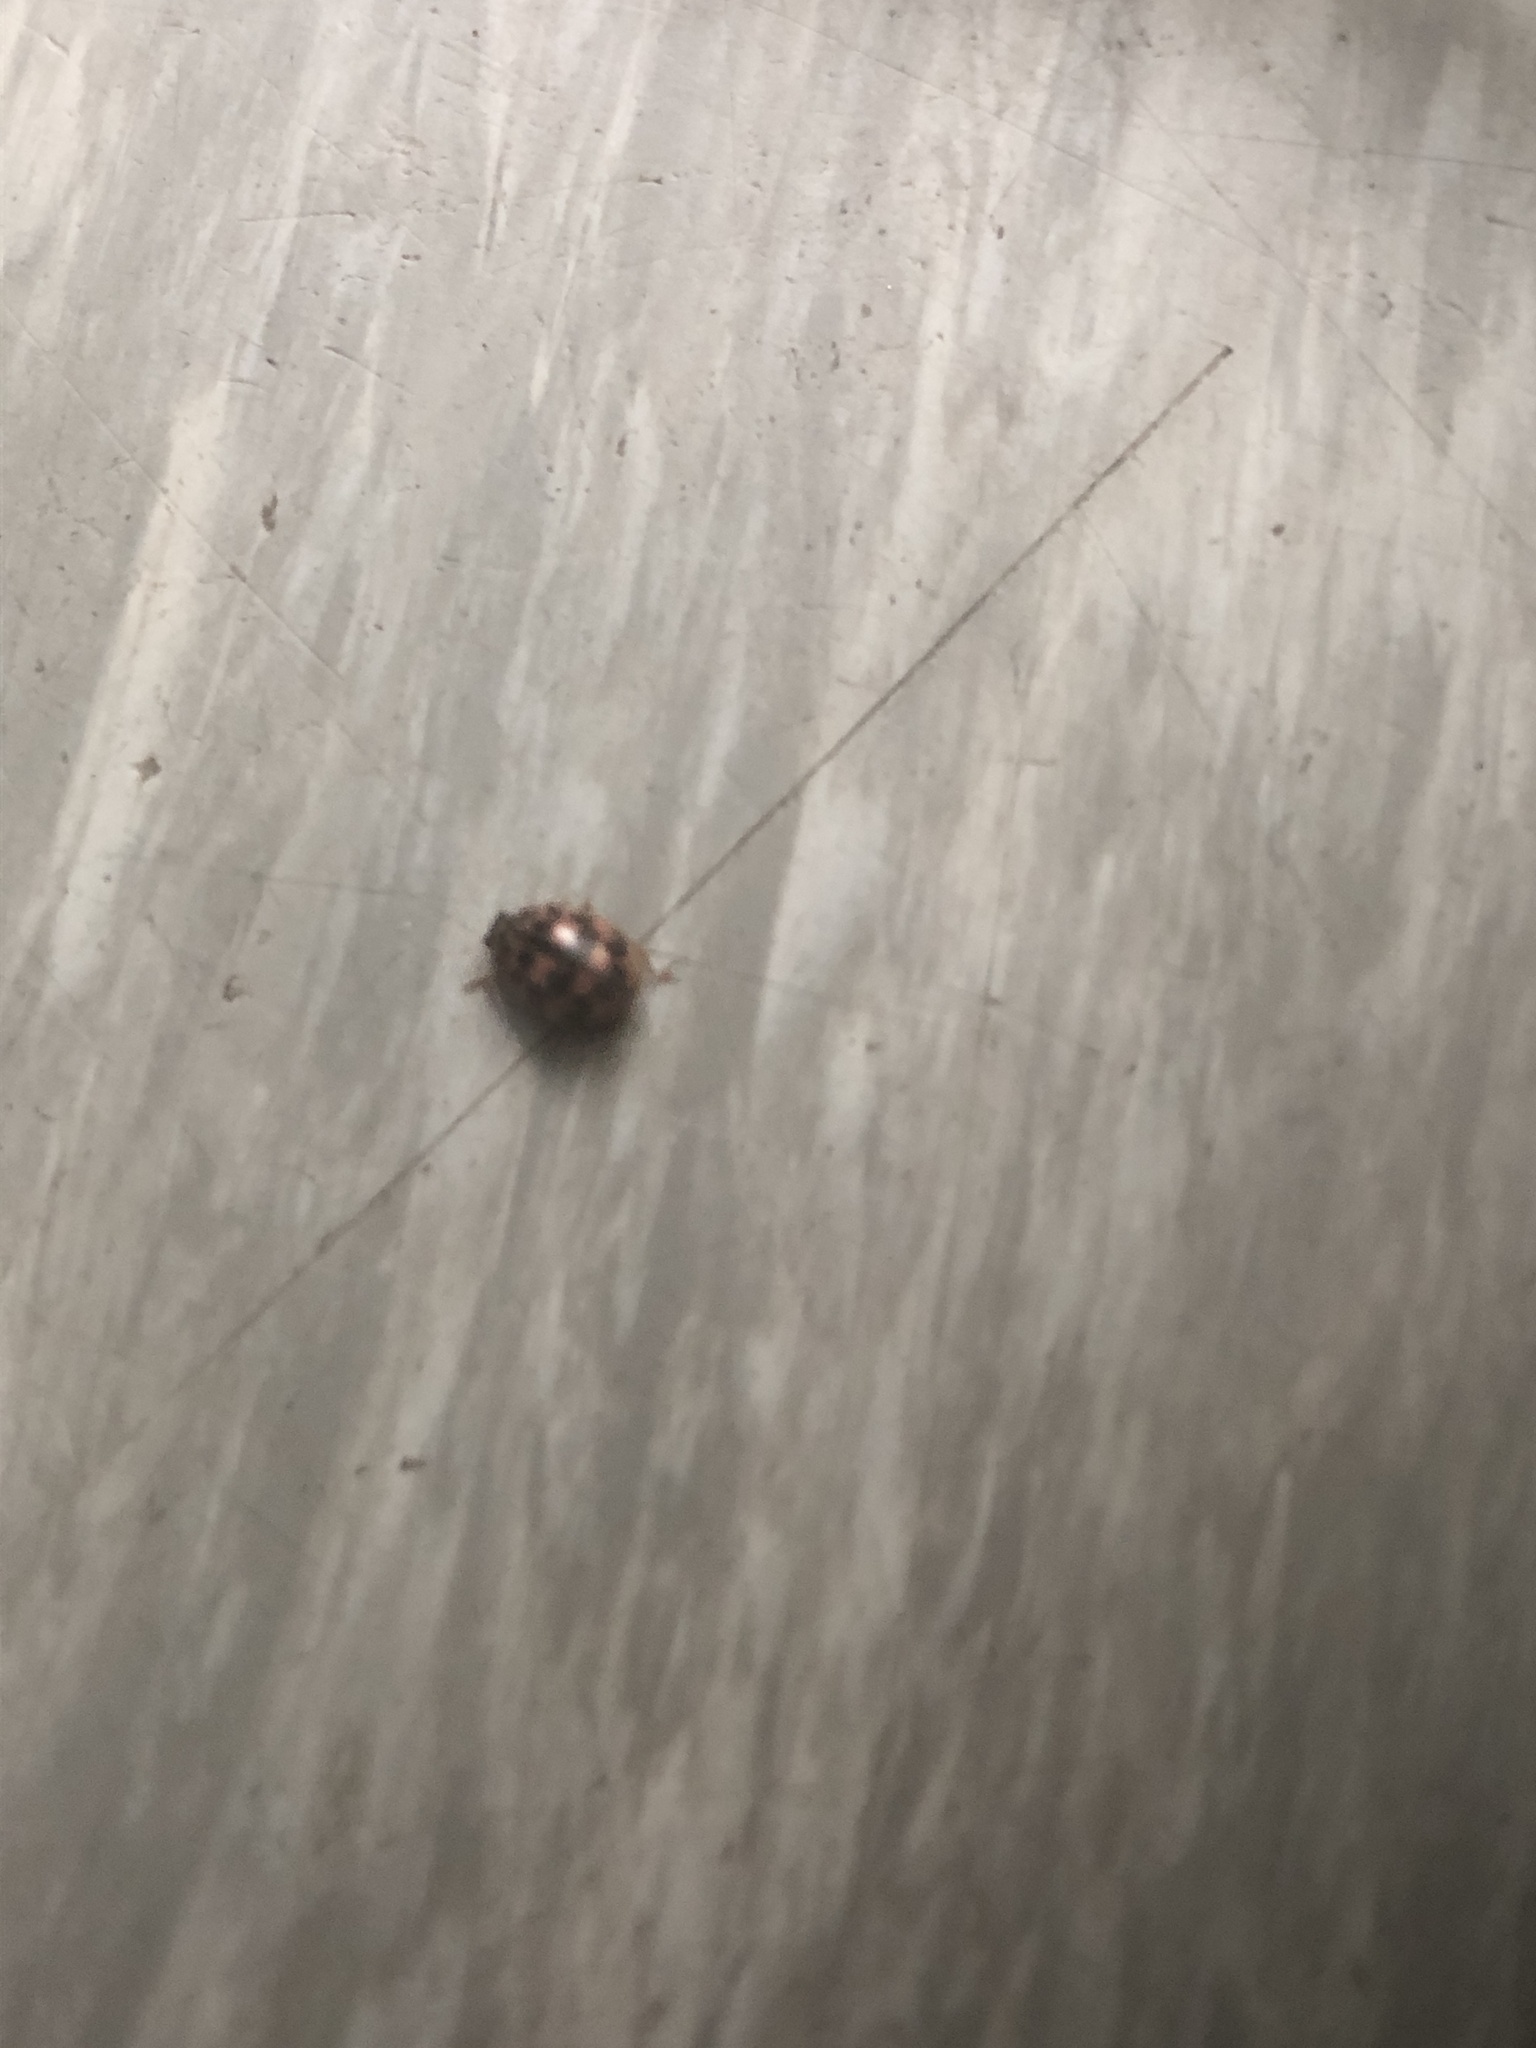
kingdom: Animalia
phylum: Arthropoda
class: Insecta
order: Coleoptera
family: Coccinellidae
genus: Oenopia
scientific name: Oenopia conglobata
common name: Ladybird beetle
